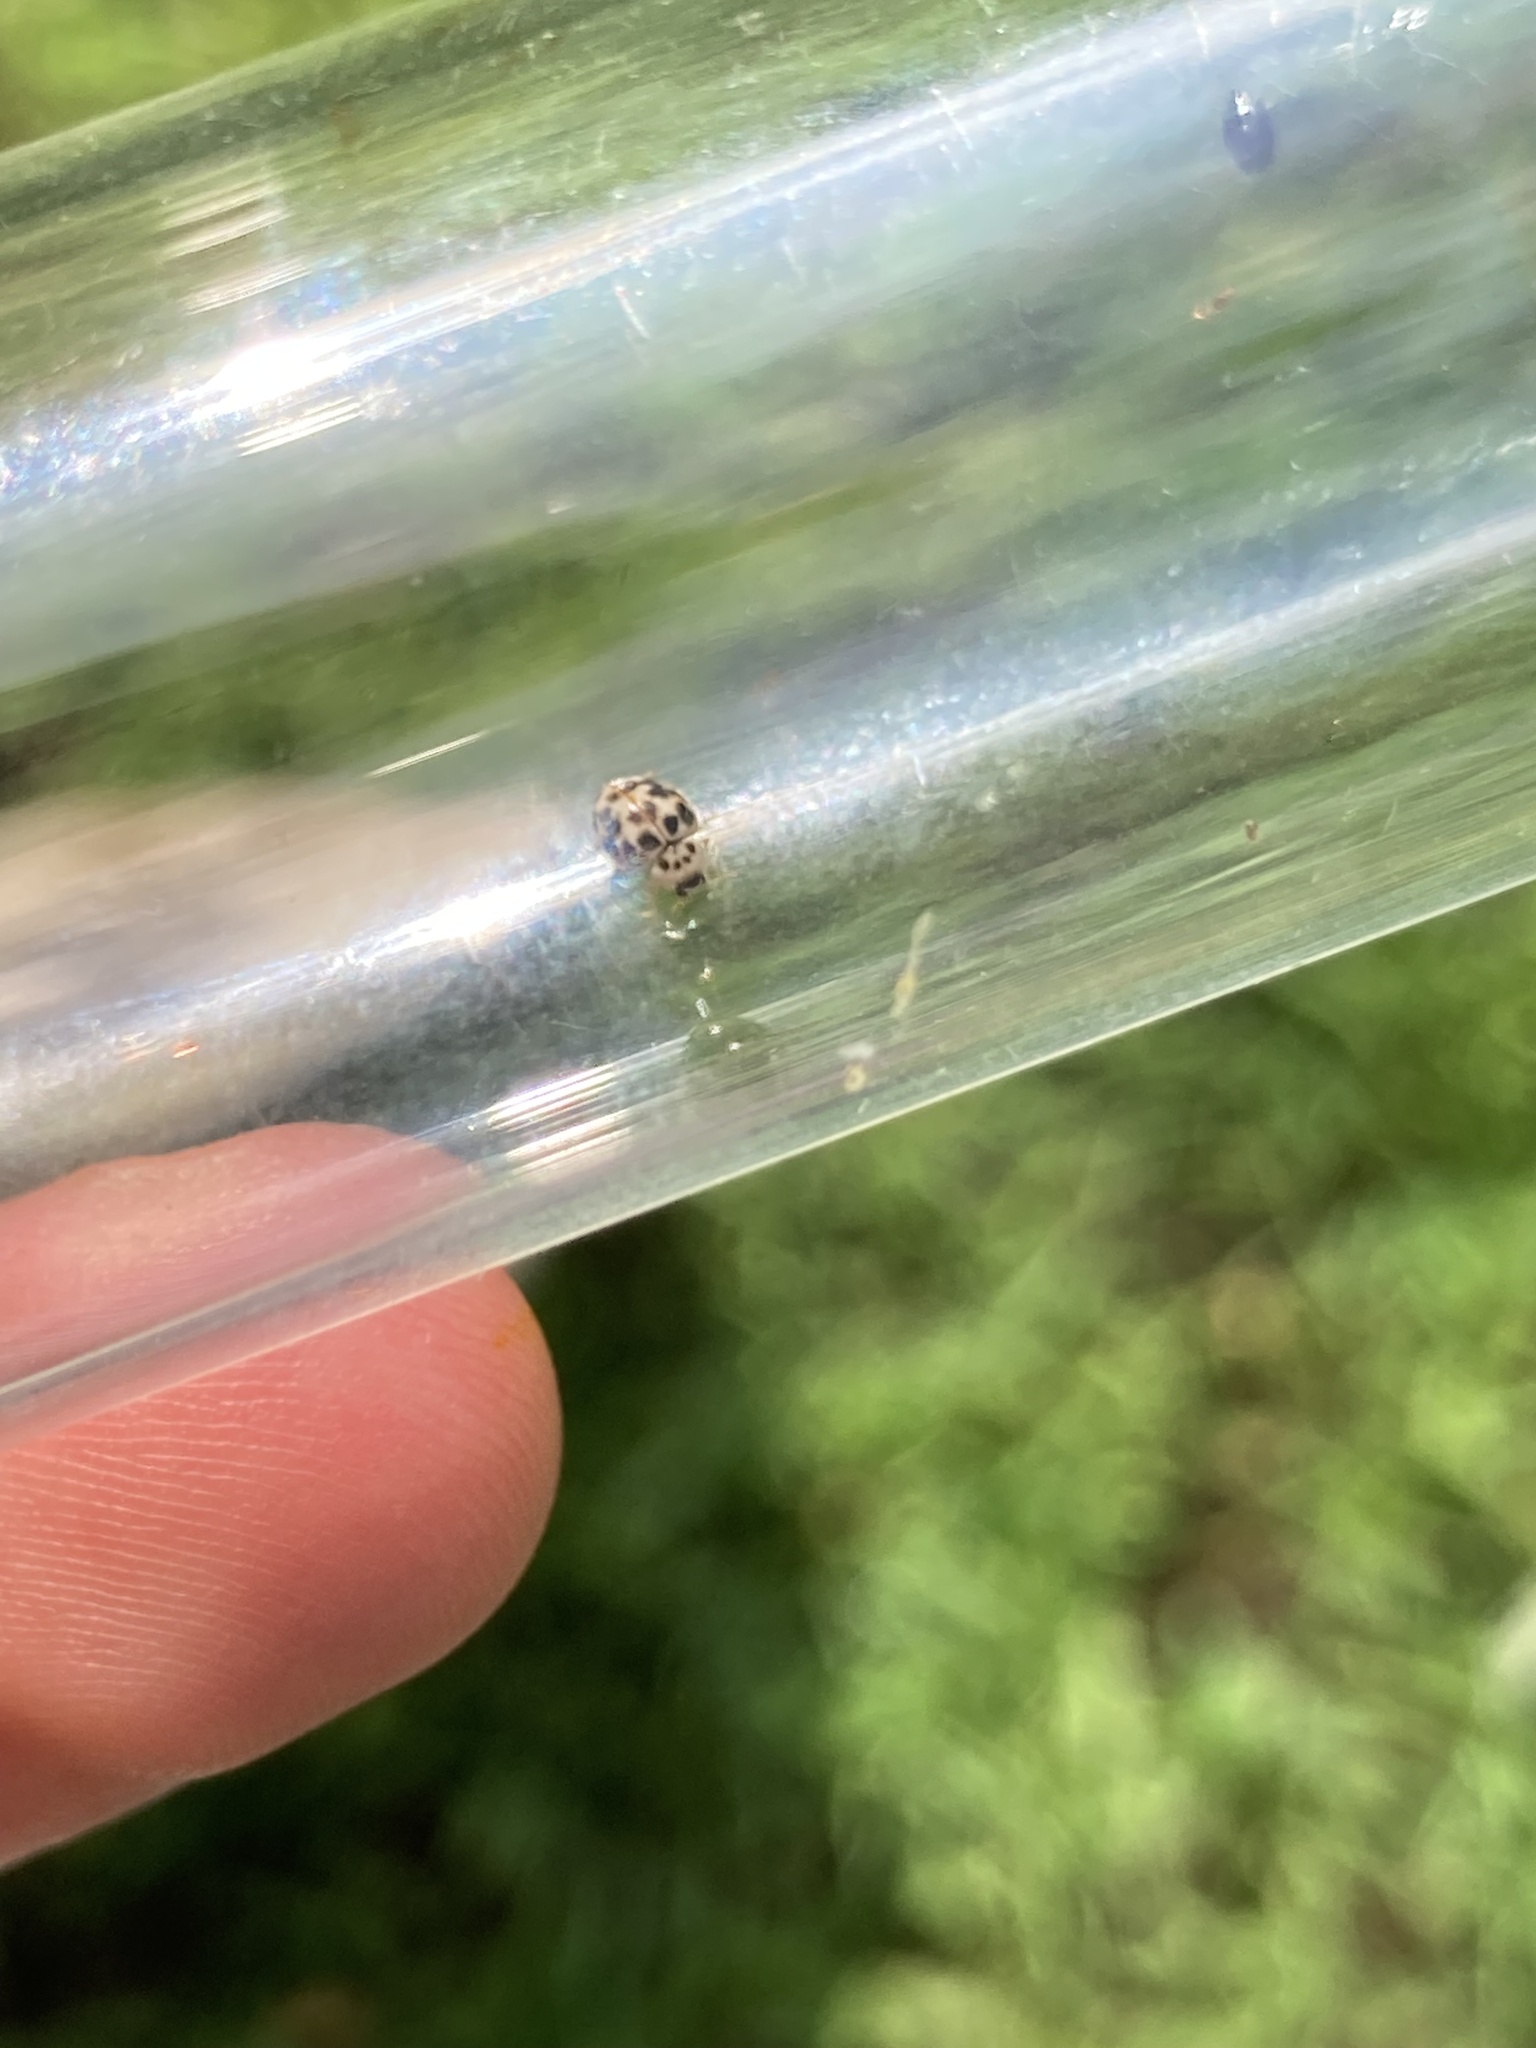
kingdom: Animalia
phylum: Arthropoda
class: Insecta
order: Coleoptera
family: Coccinellidae
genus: Psyllobora
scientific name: Psyllobora vigintimaculata
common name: Ladybird beetle
